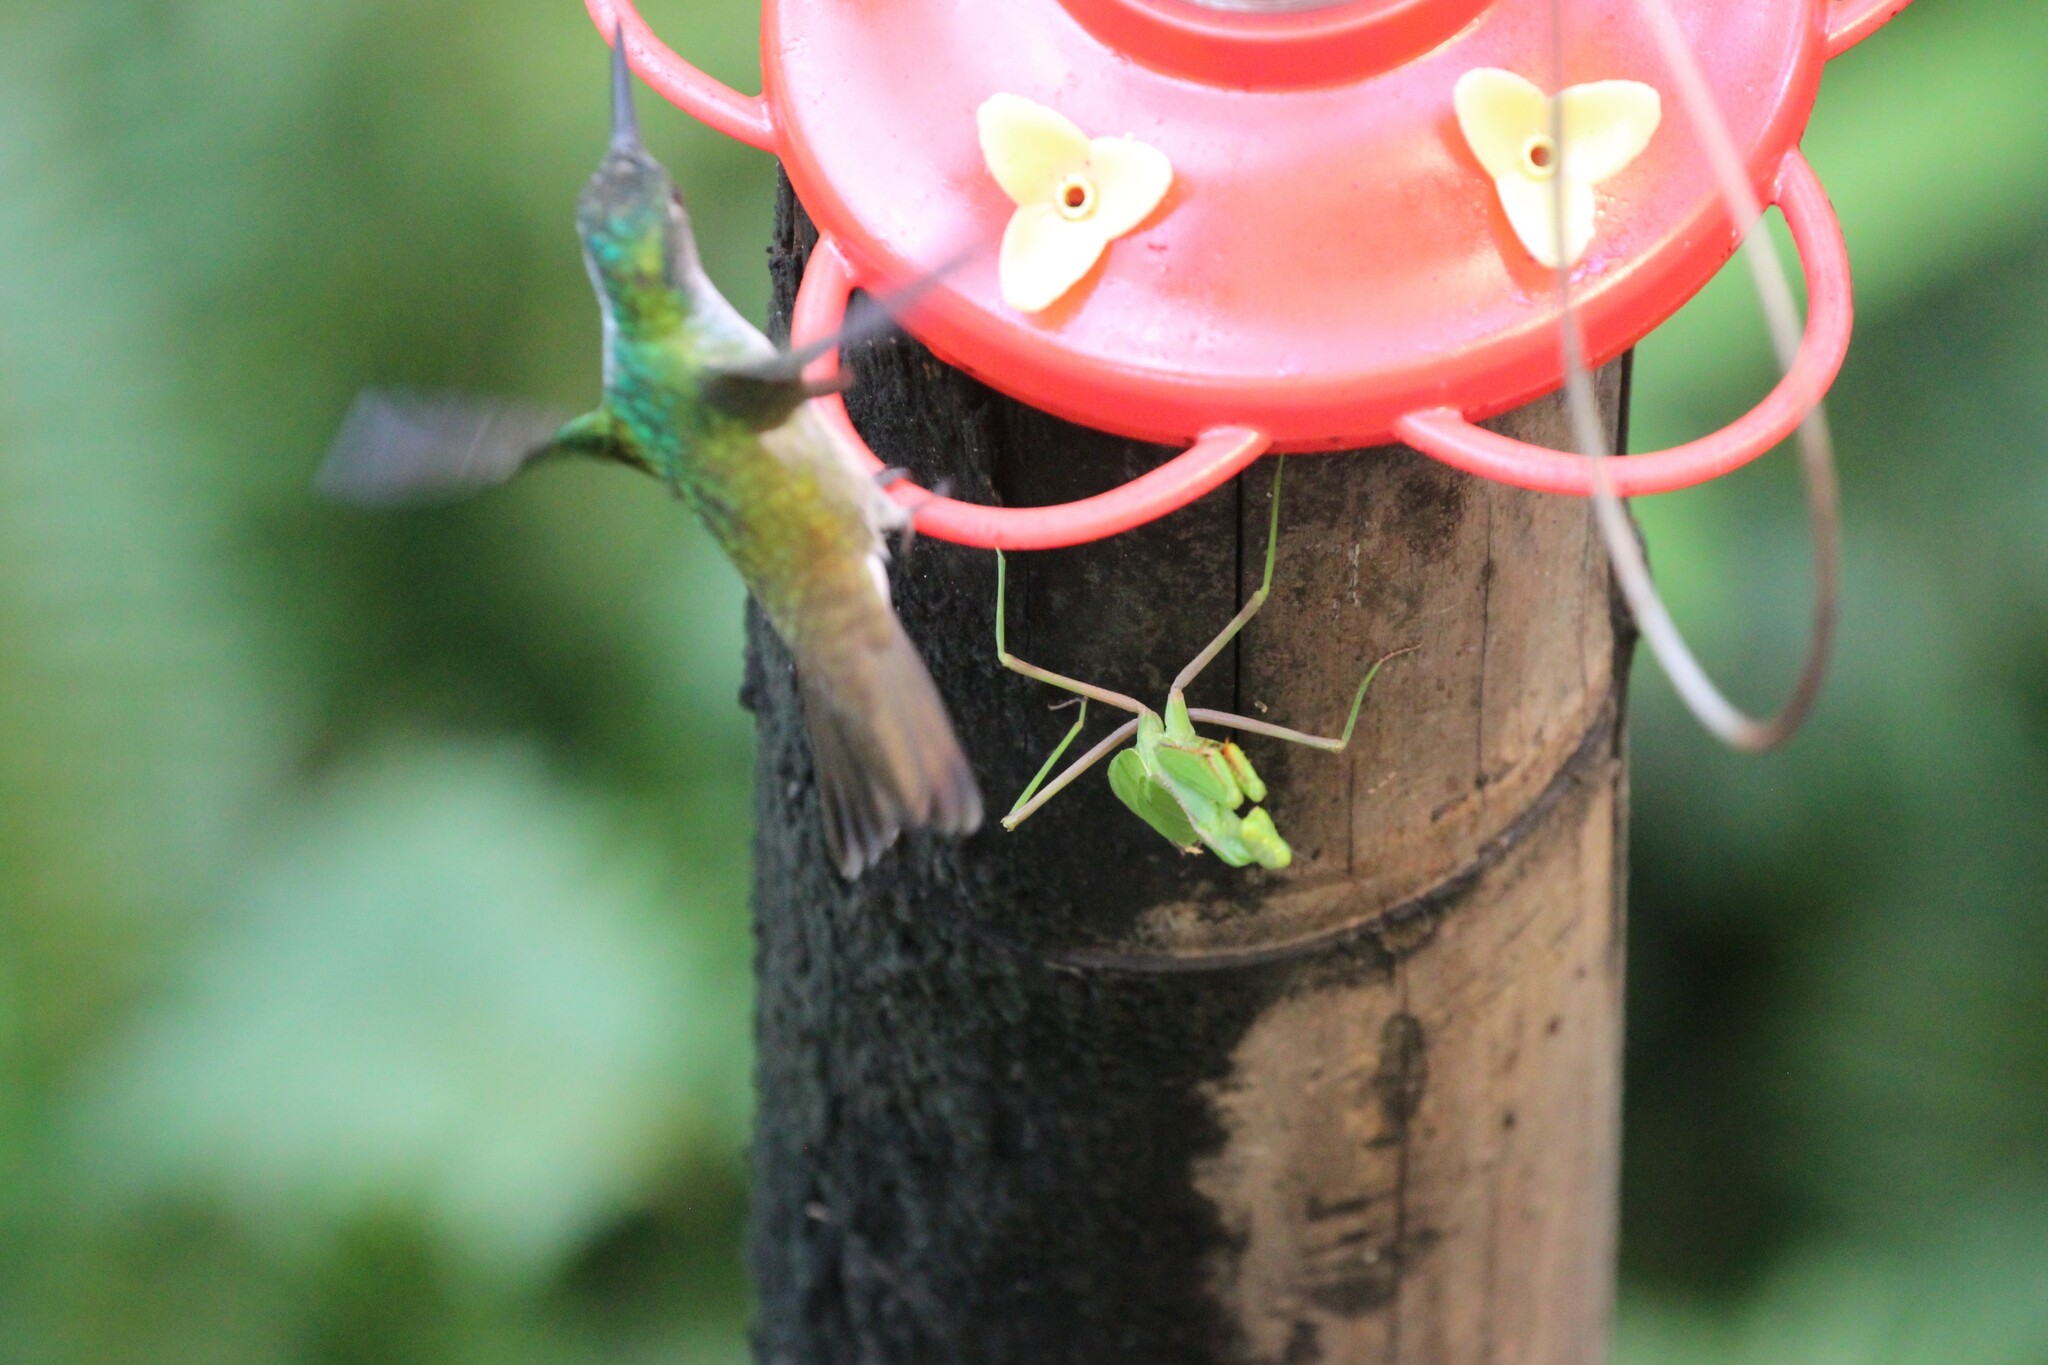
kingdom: Animalia
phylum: Arthropoda
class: Insecta
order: Mantodea
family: Mantidae
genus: Stagmomantis
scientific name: Stagmomantis theophila
